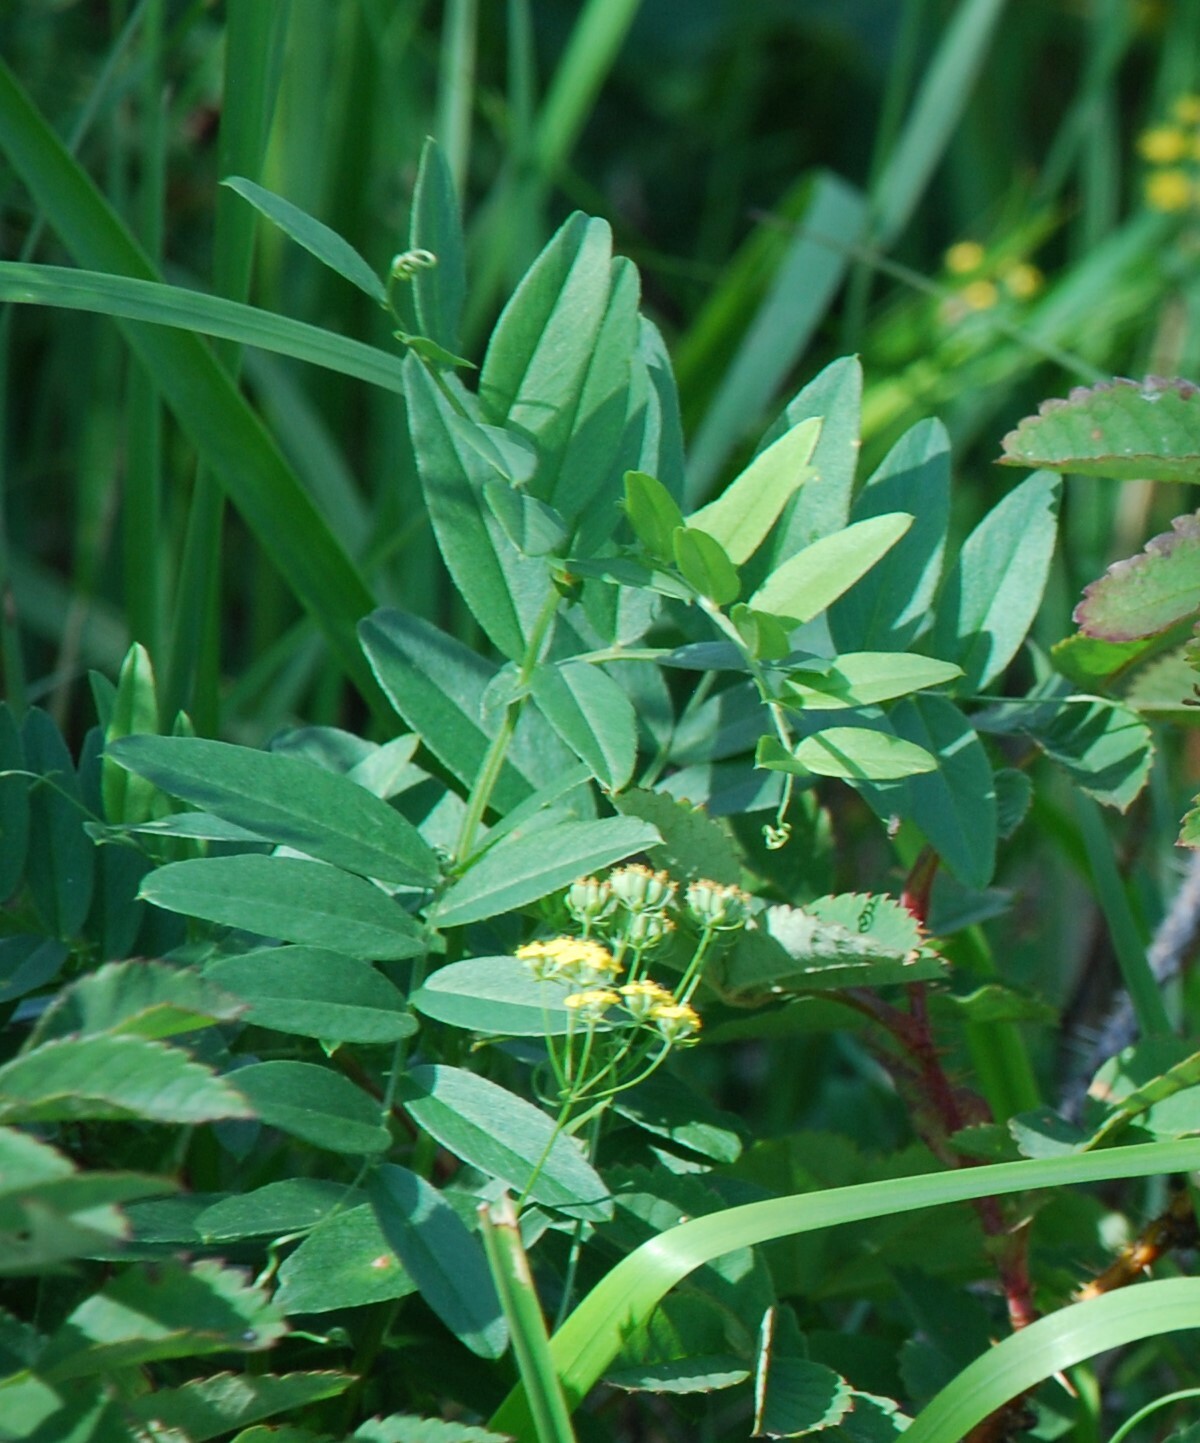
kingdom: Plantae
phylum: Tracheophyta
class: Magnoliopsida
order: Fabales
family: Fabaceae
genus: Vicia
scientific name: Vicia amoena
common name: Cheder ebs
